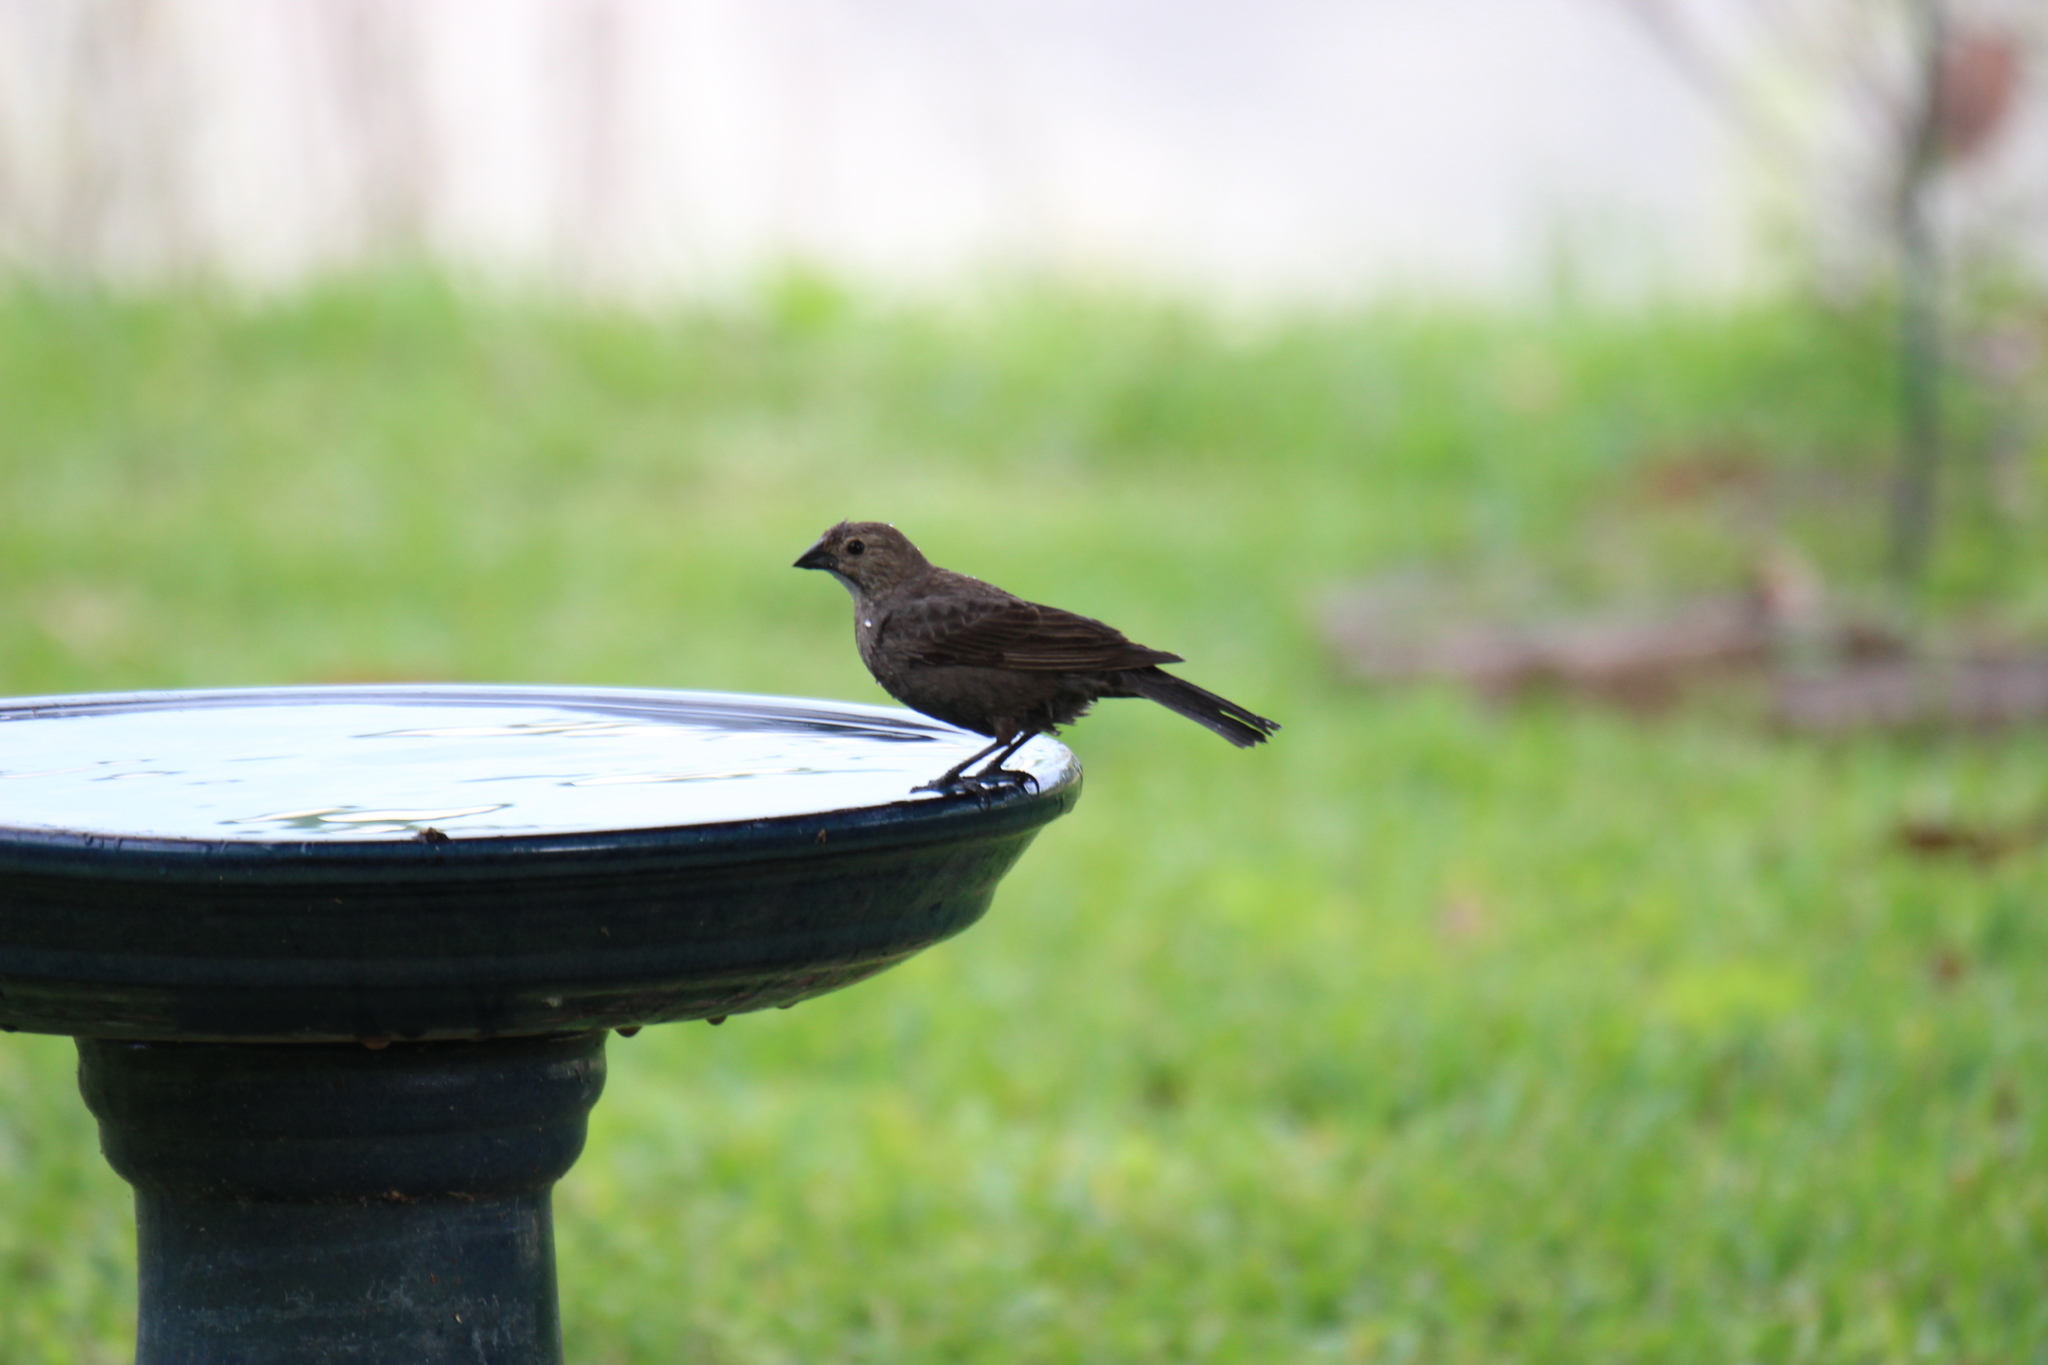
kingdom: Animalia
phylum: Chordata
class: Aves
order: Passeriformes
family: Icteridae
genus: Molothrus
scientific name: Molothrus ater
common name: Brown-headed cowbird
